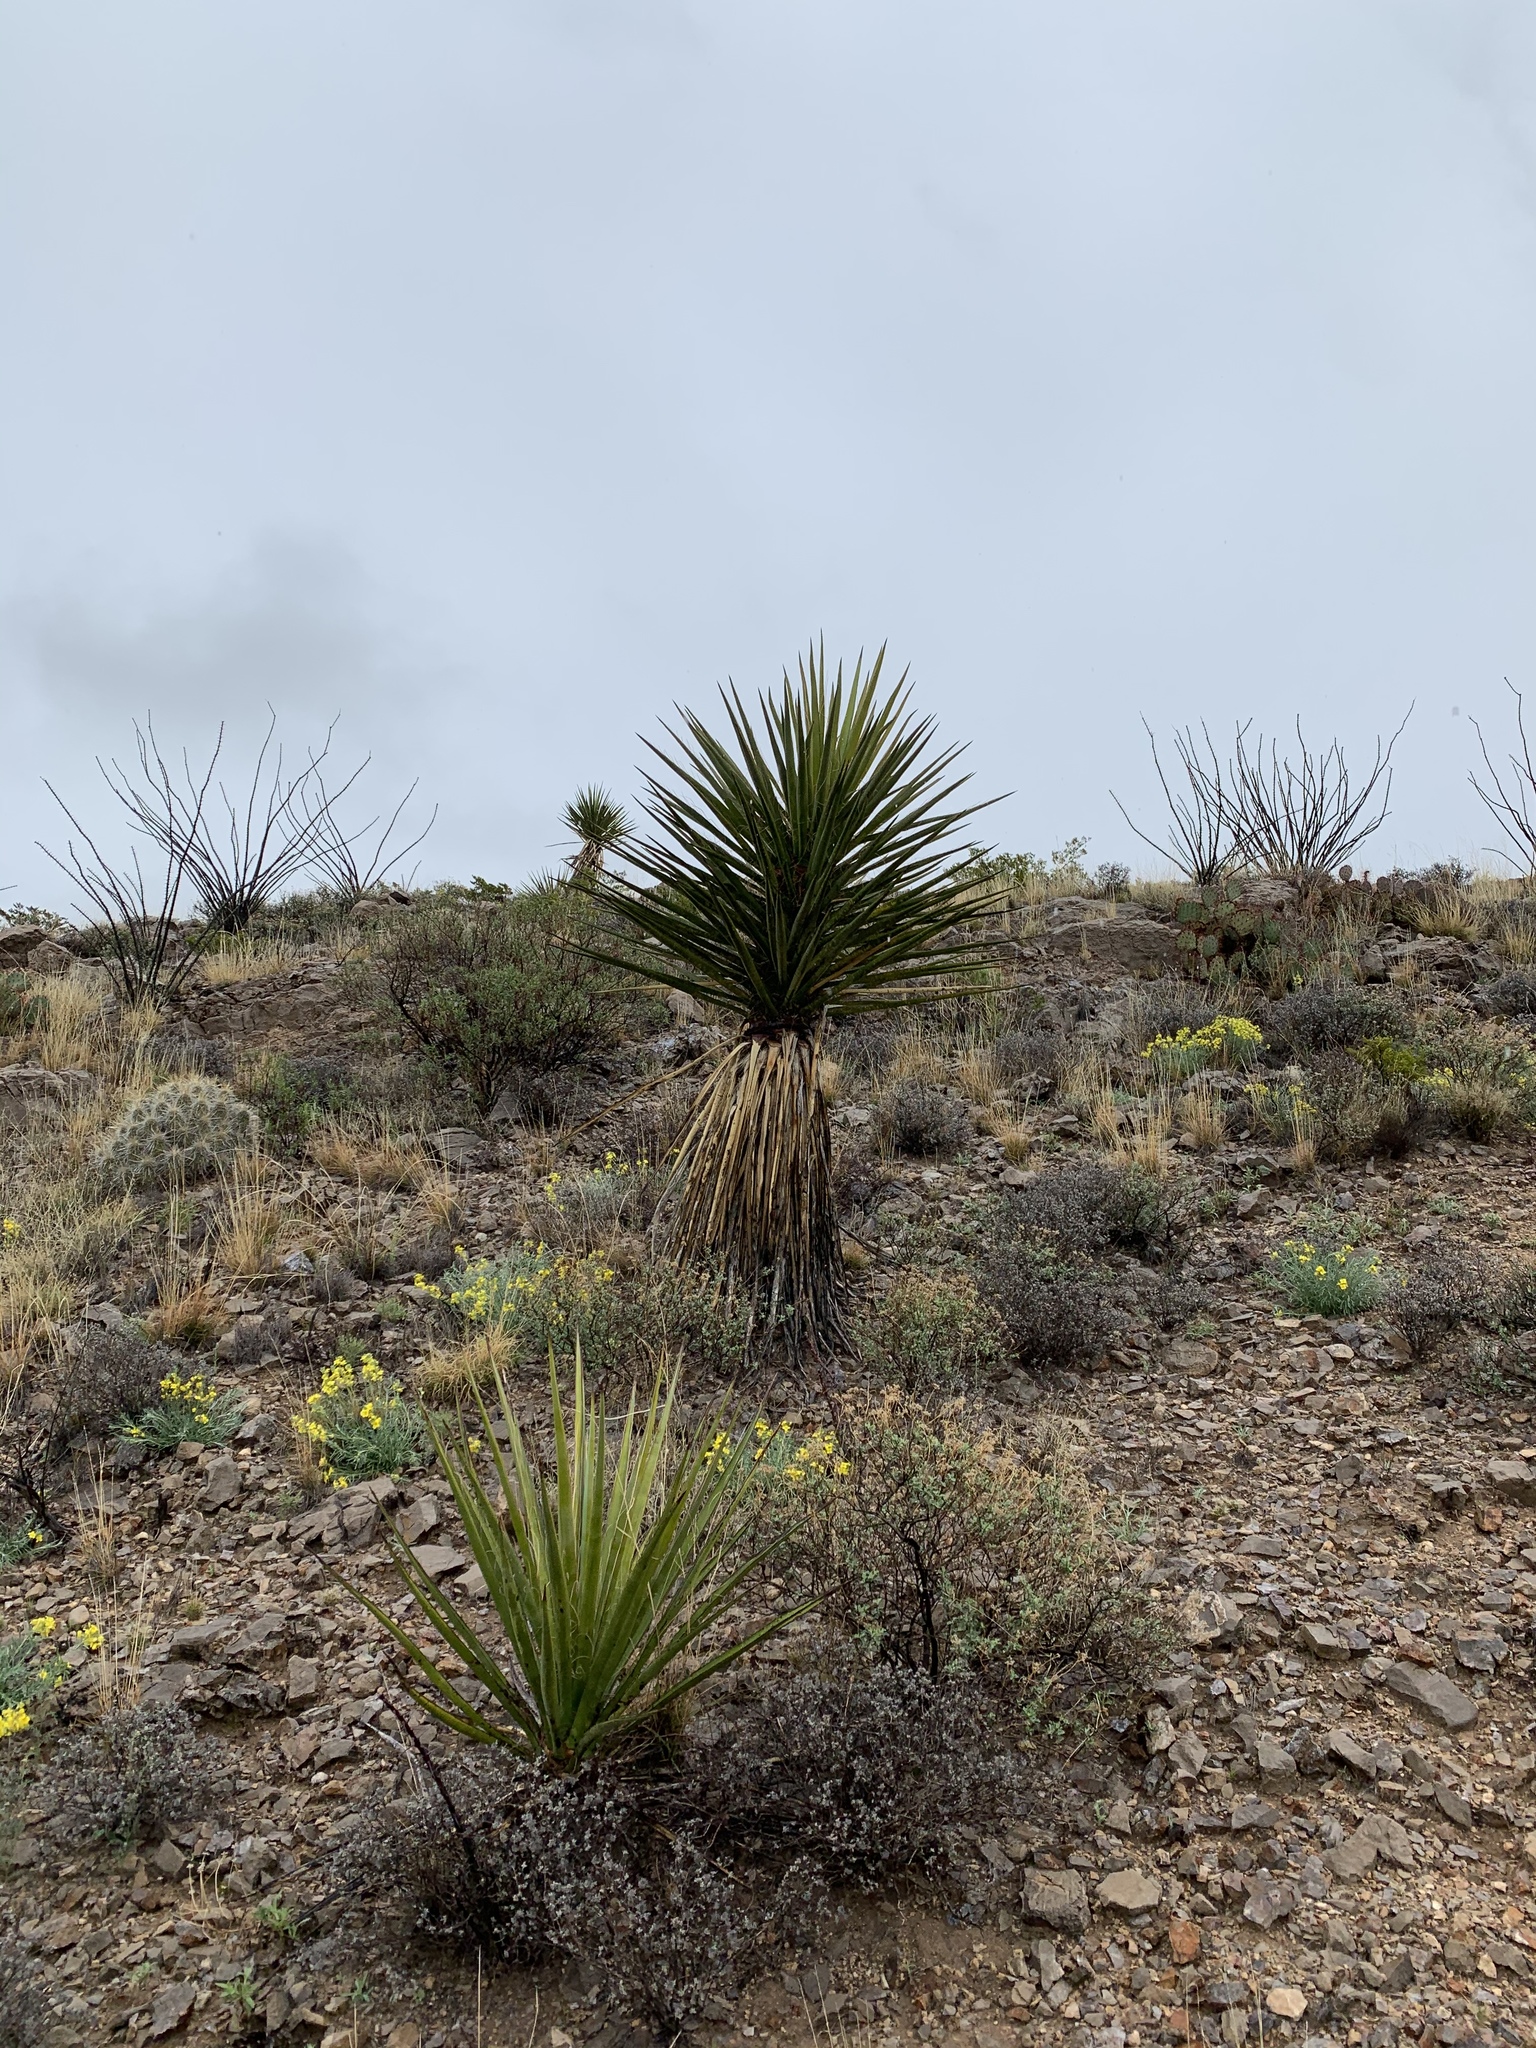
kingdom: Plantae
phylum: Tracheophyta
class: Liliopsida
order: Asparagales
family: Asparagaceae
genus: Yucca
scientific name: Yucca treculiana
